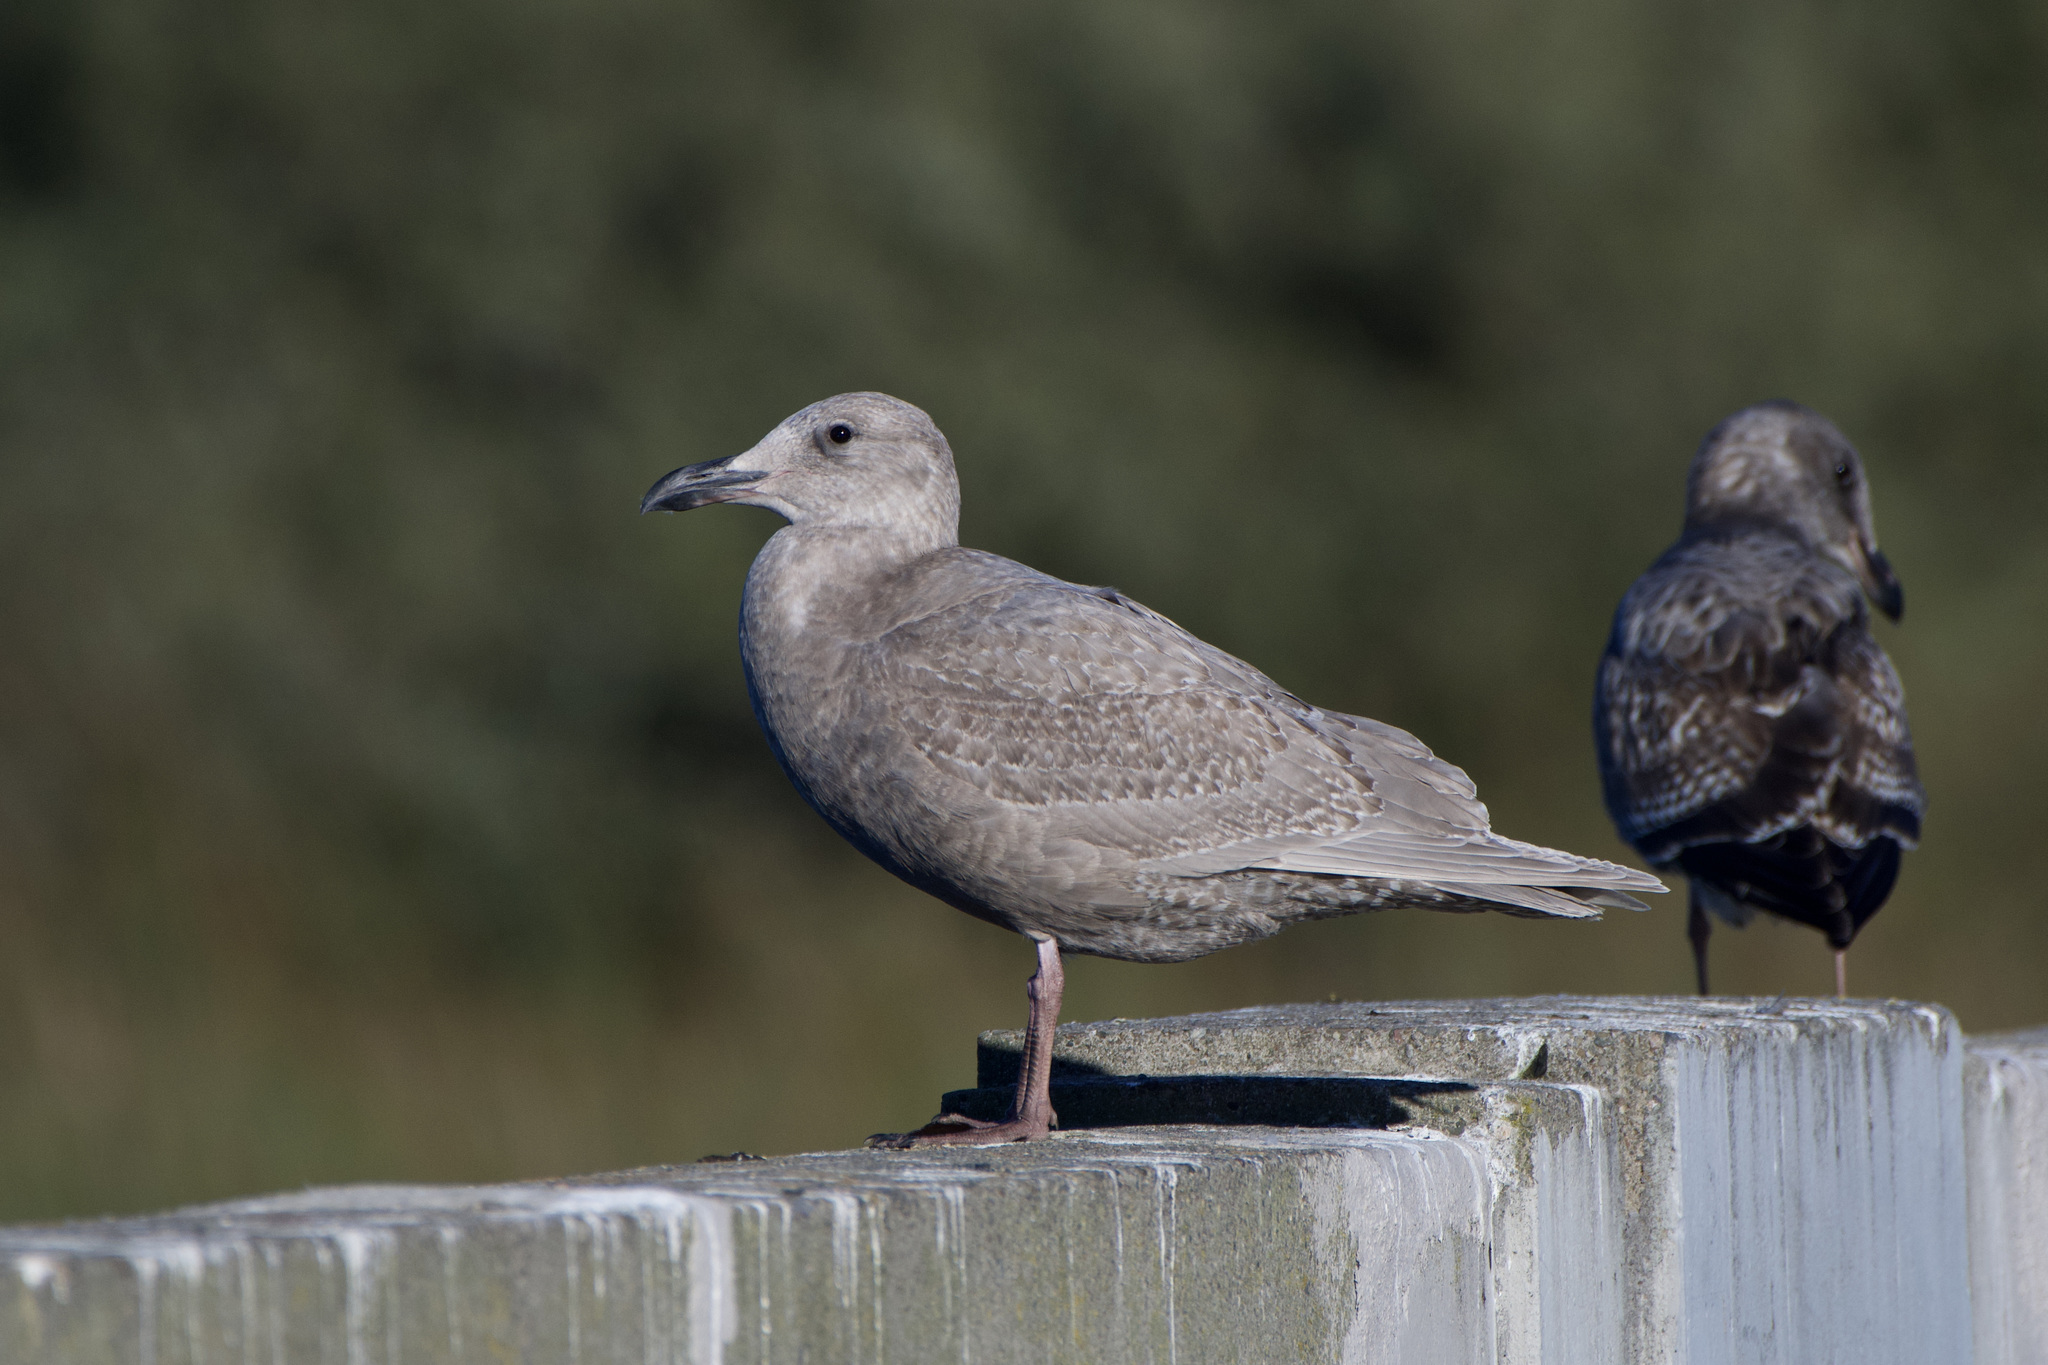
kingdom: Animalia
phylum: Chordata
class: Aves
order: Charadriiformes
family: Laridae
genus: Larus
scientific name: Larus
